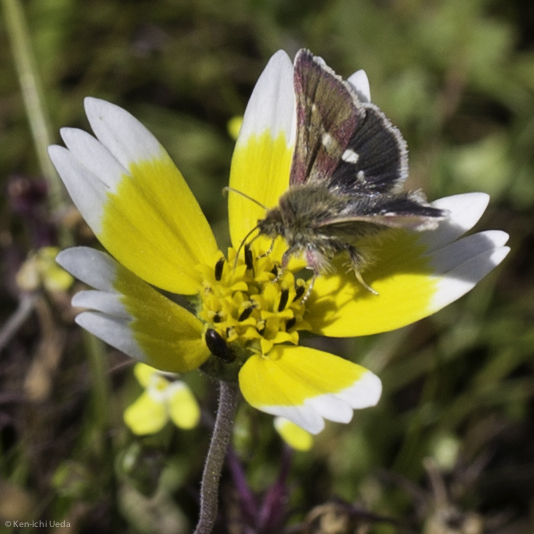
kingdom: Animalia
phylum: Arthropoda
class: Insecta
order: Lepidoptera
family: Noctuidae
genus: Schinia
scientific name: Schinia pulchripennis
